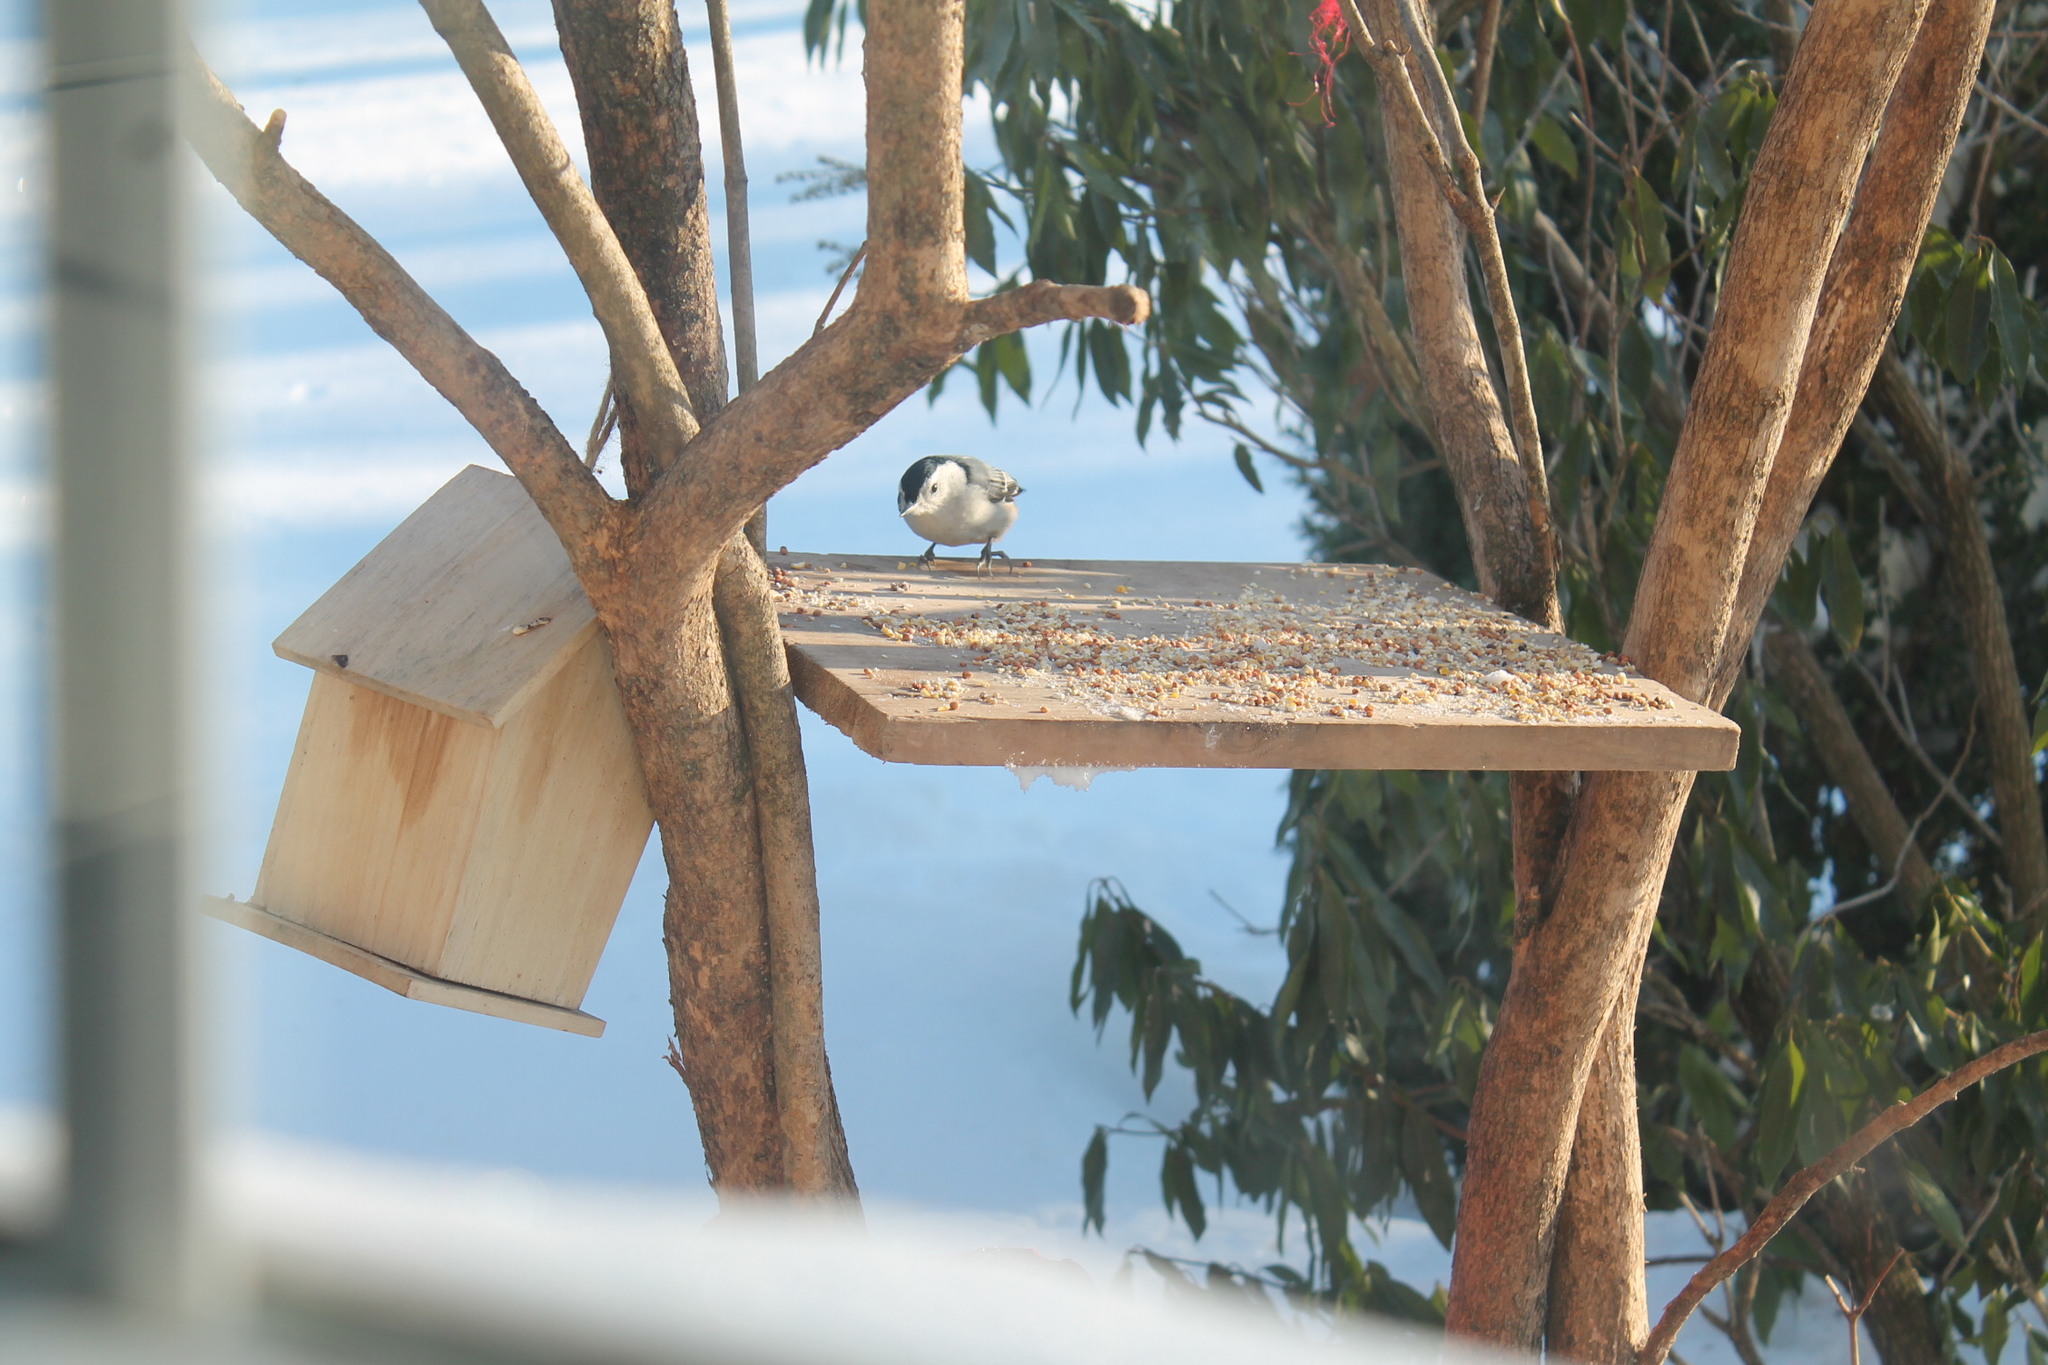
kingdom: Animalia
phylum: Chordata
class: Aves
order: Passeriformes
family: Sittidae
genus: Sitta
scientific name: Sitta carolinensis
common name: White-breasted nuthatch
